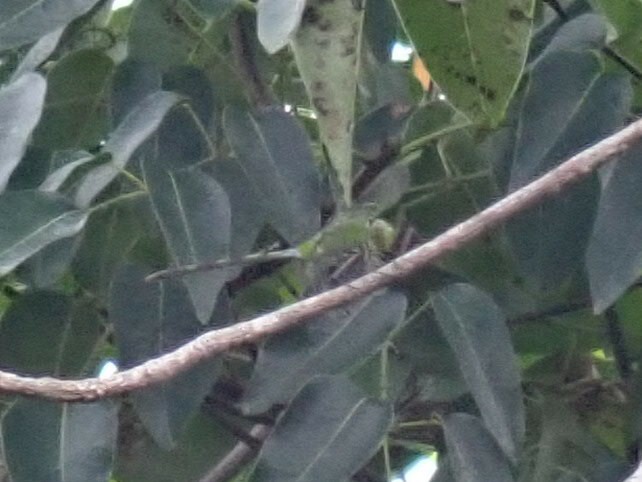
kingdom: Animalia
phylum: Arthropoda
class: Insecta
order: Odonata
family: Libellulidae
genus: Erythemis
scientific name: Erythemis vesiculosa
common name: Great pondhawk
